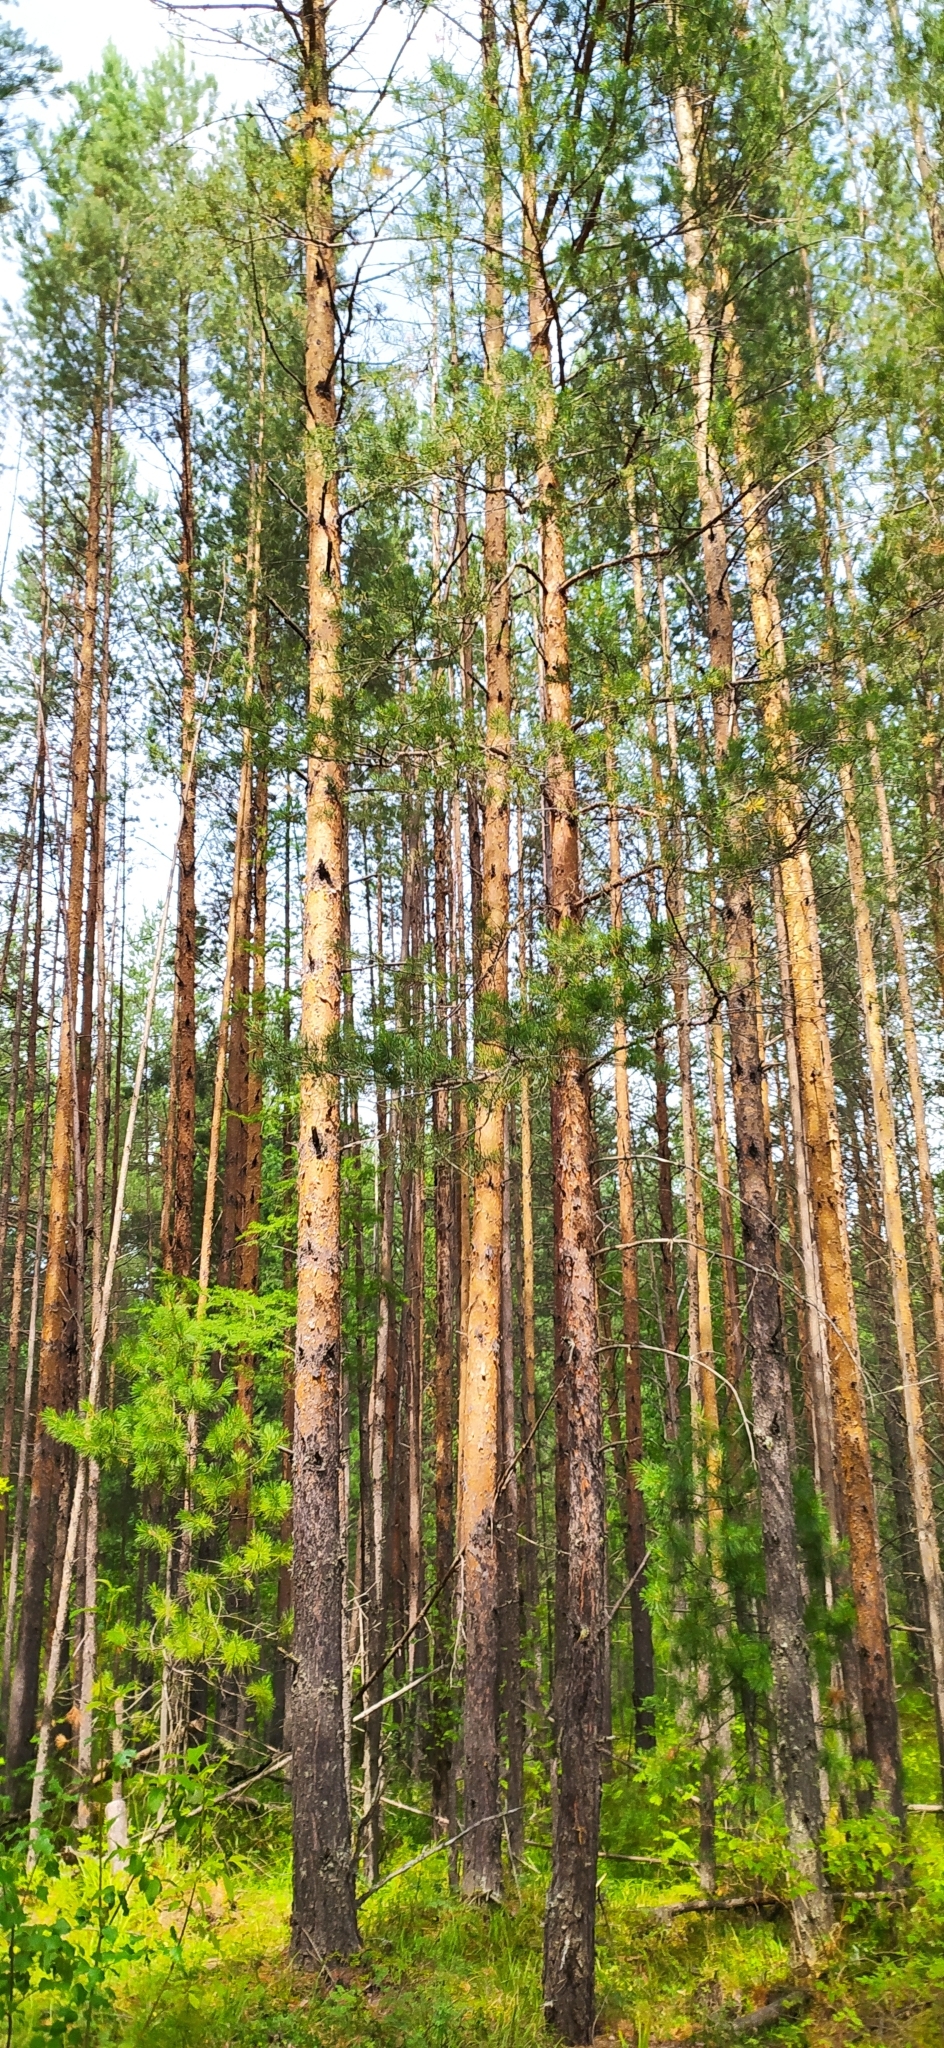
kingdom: Plantae
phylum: Tracheophyta
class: Pinopsida
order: Pinales
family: Pinaceae
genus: Pinus
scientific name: Pinus sylvestris
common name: Scots pine
